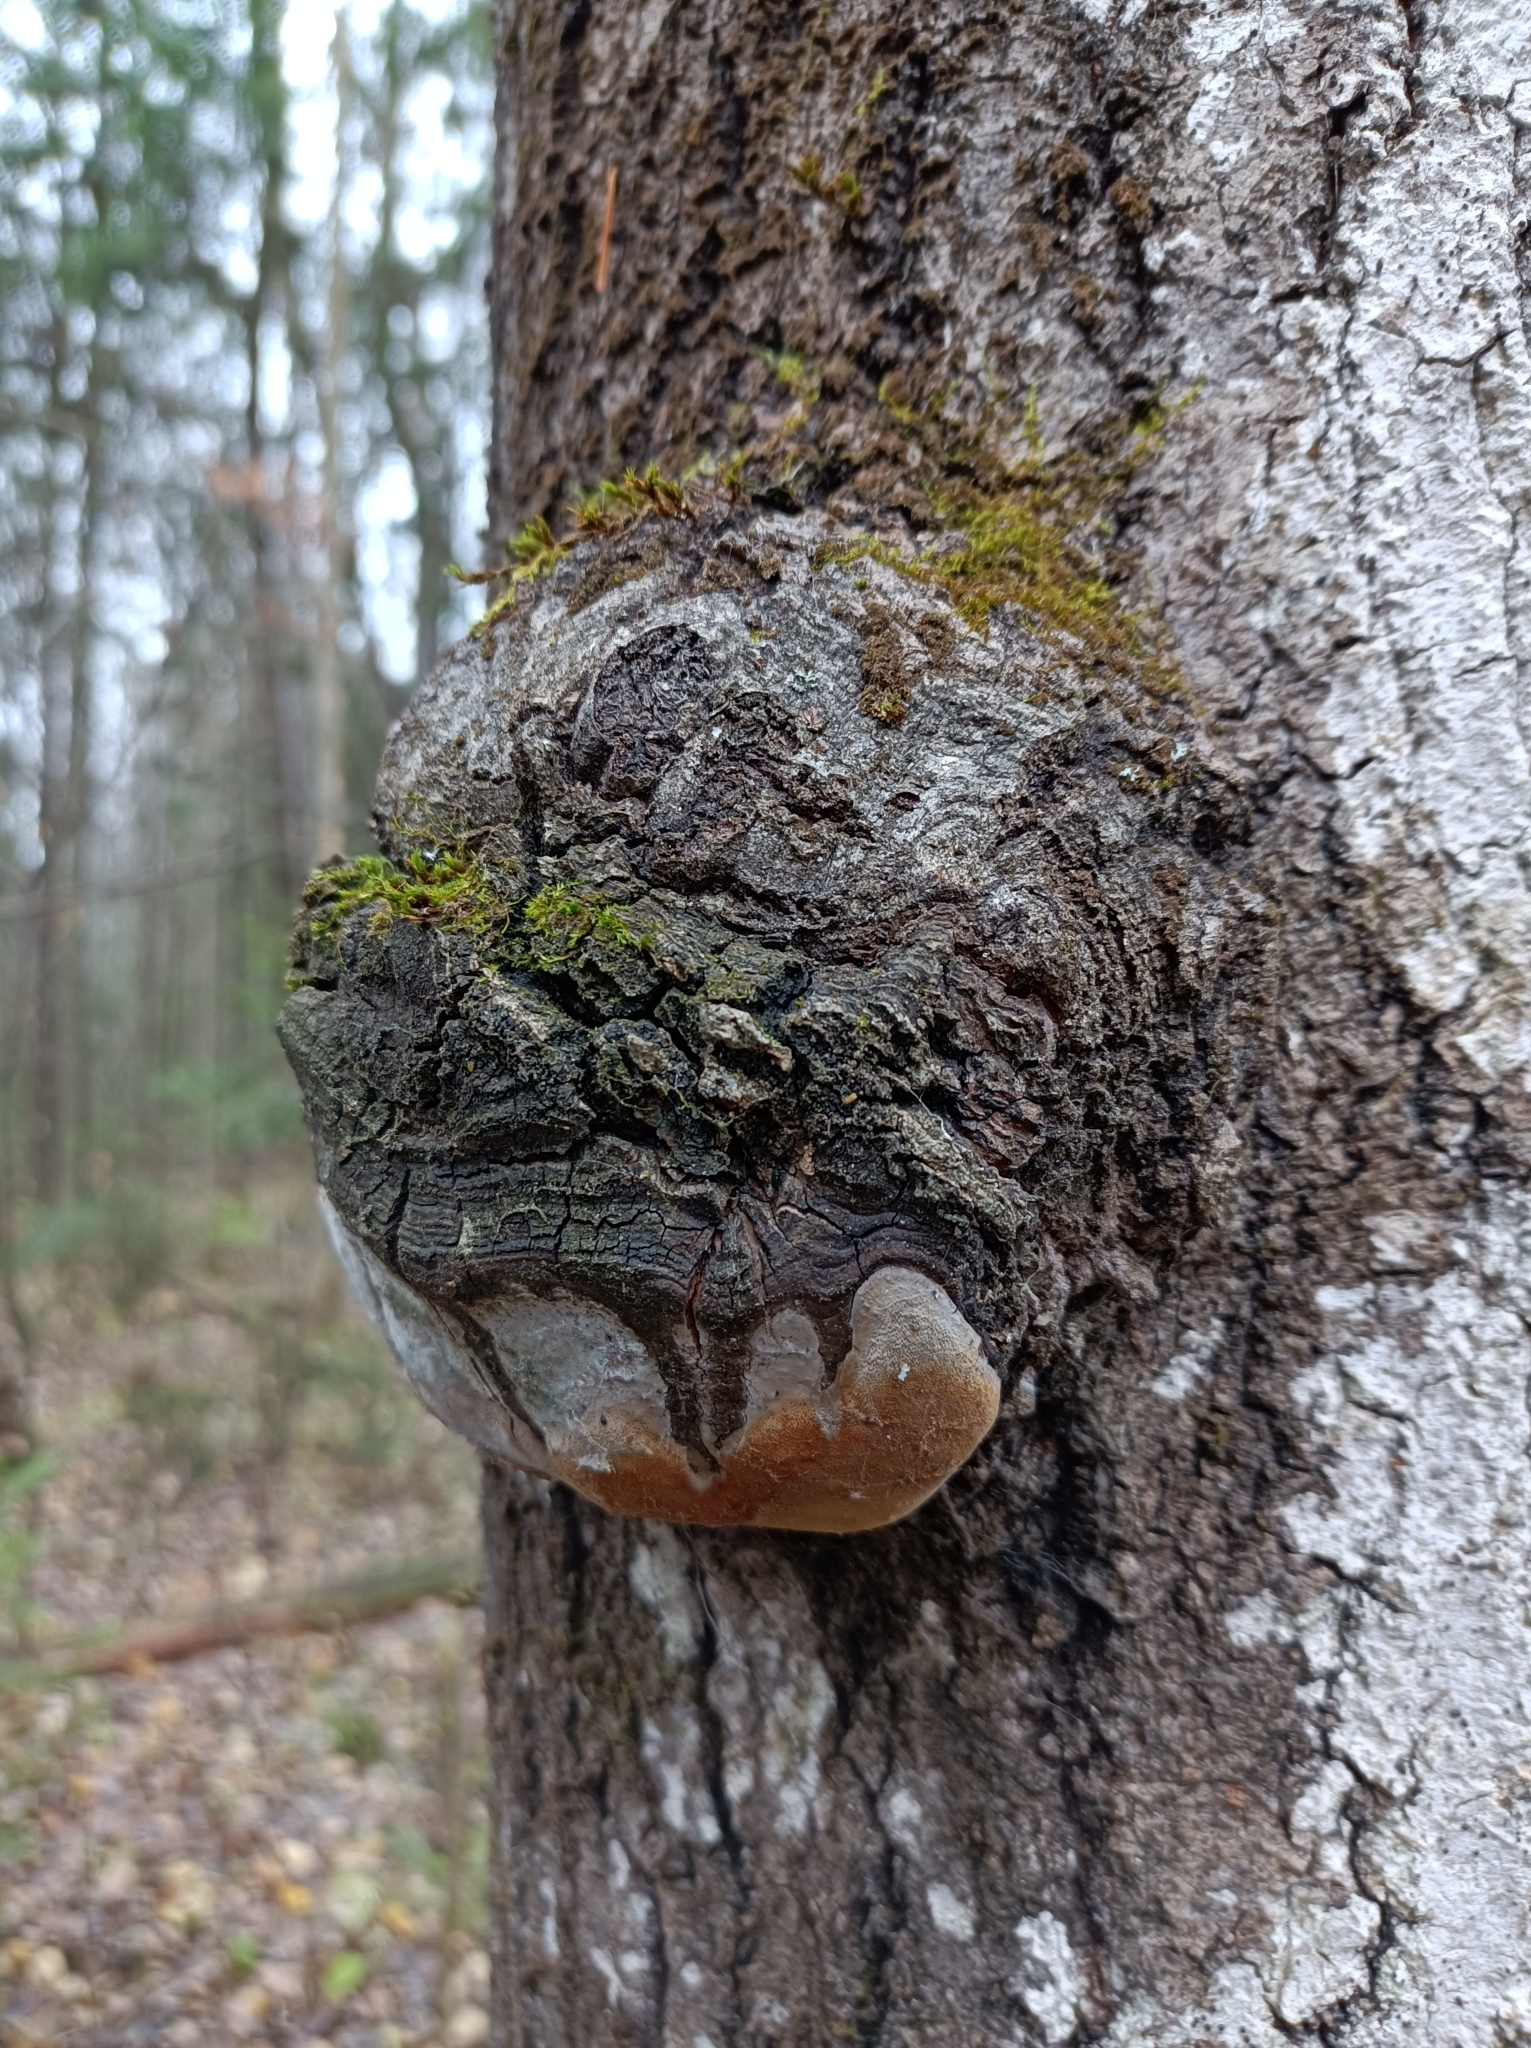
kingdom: Fungi
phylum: Basidiomycota
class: Agaricomycetes
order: Hymenochaetales
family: Hymenochaetaceae
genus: Phellinus
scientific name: Phellinus tremulae
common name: Aspen bracket
